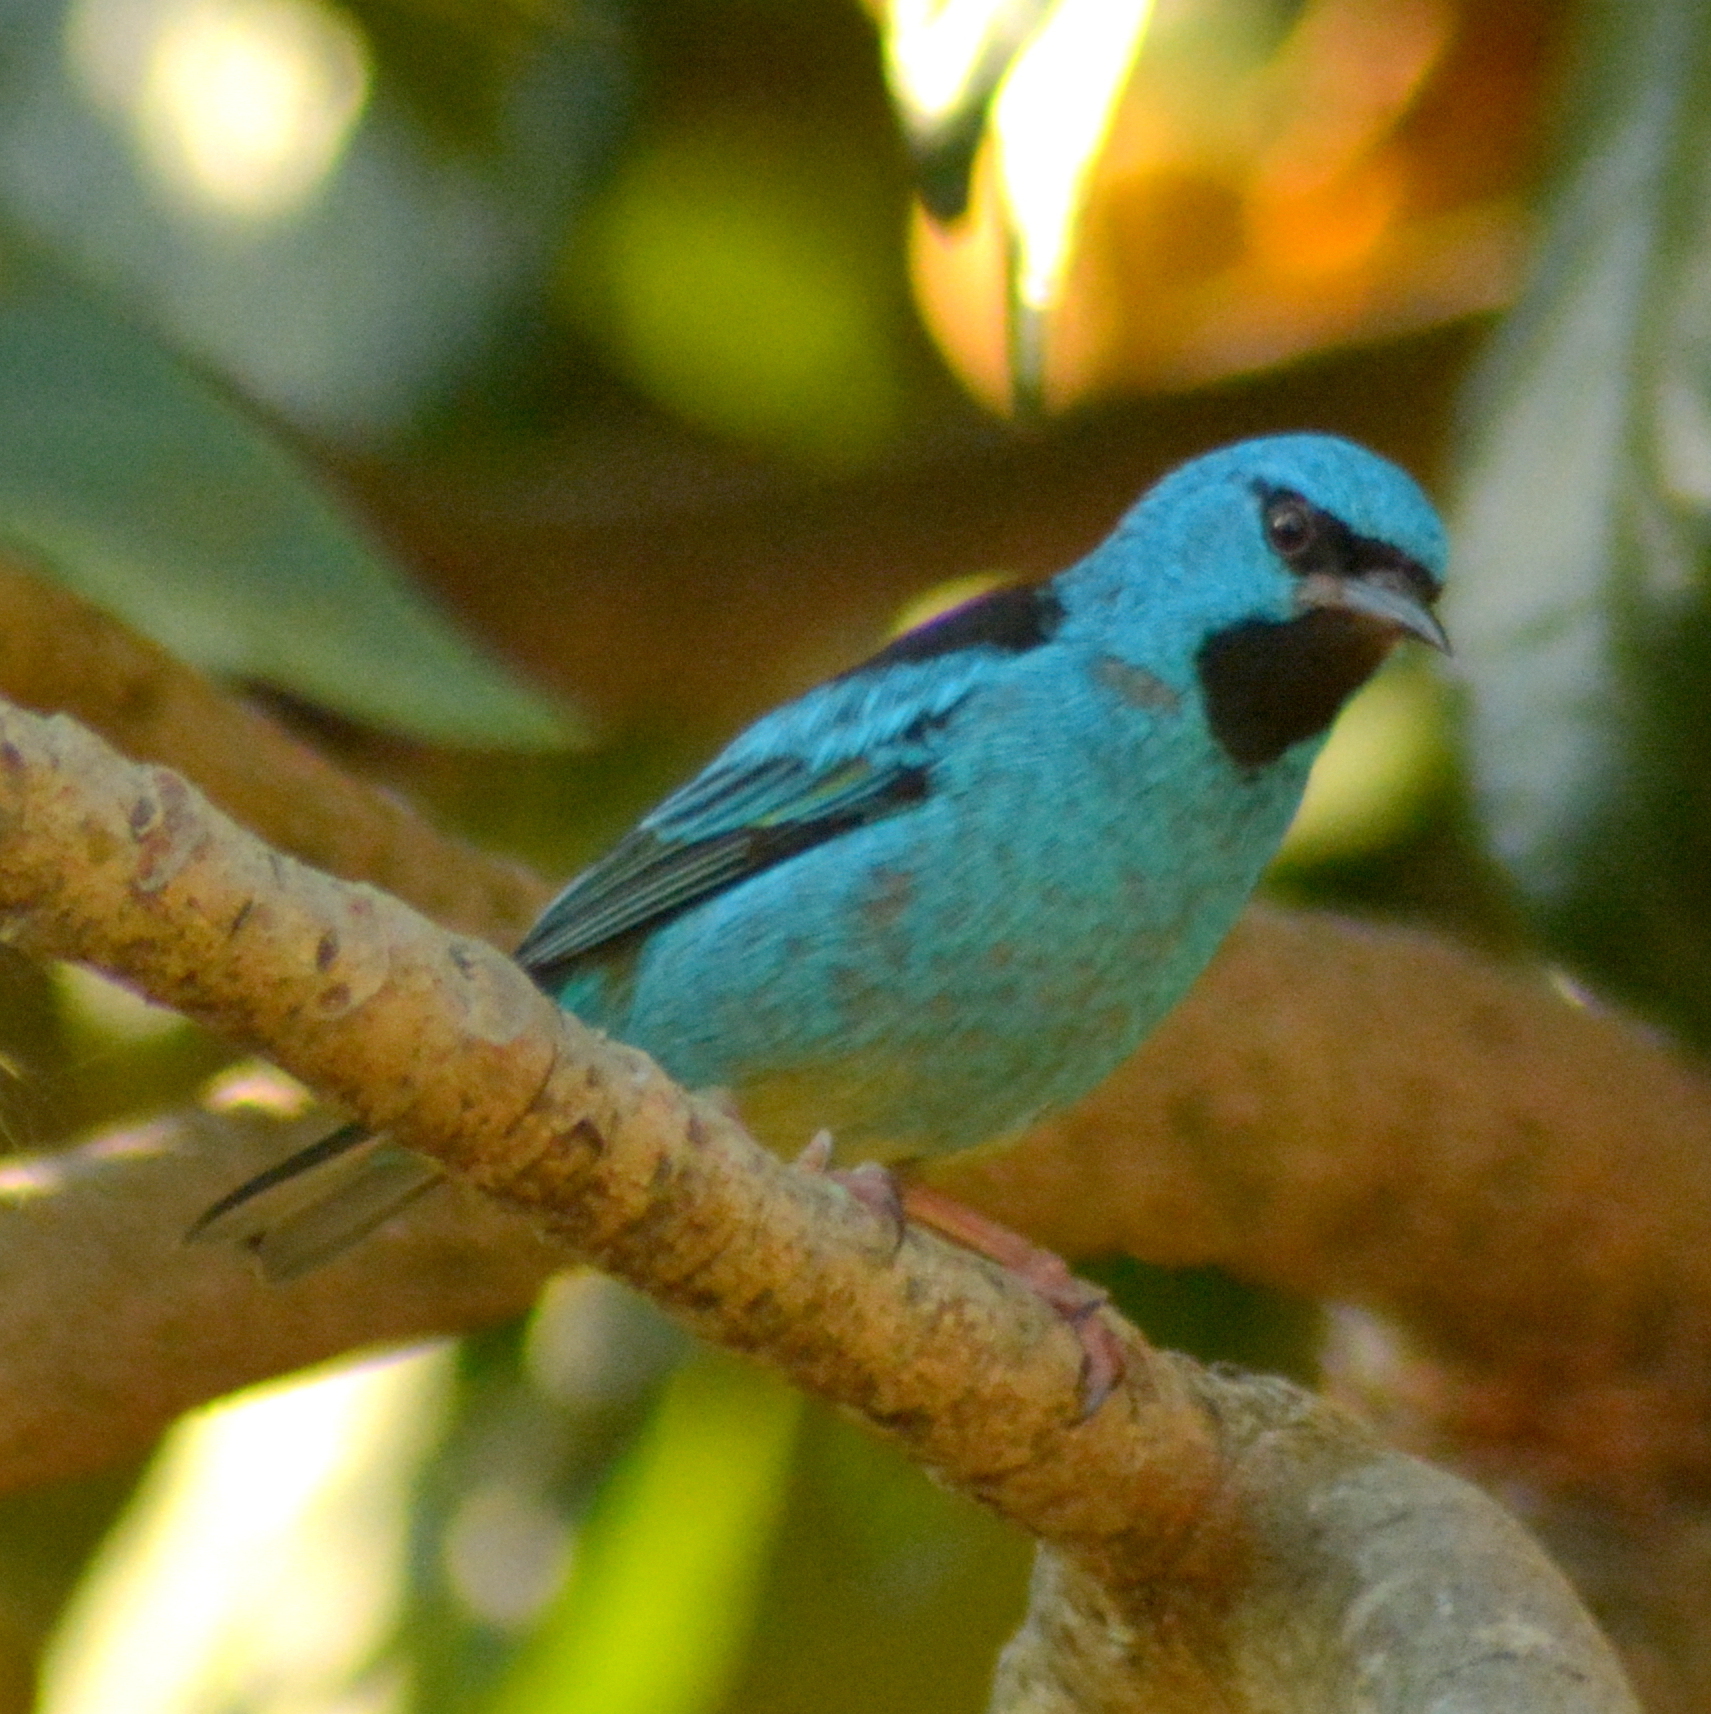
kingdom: Animalia
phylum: Chordata
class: Aves
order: Passeriformes
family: Thraupidae
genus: Dacnis
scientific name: Dacnis cayana
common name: Blue dacnis
